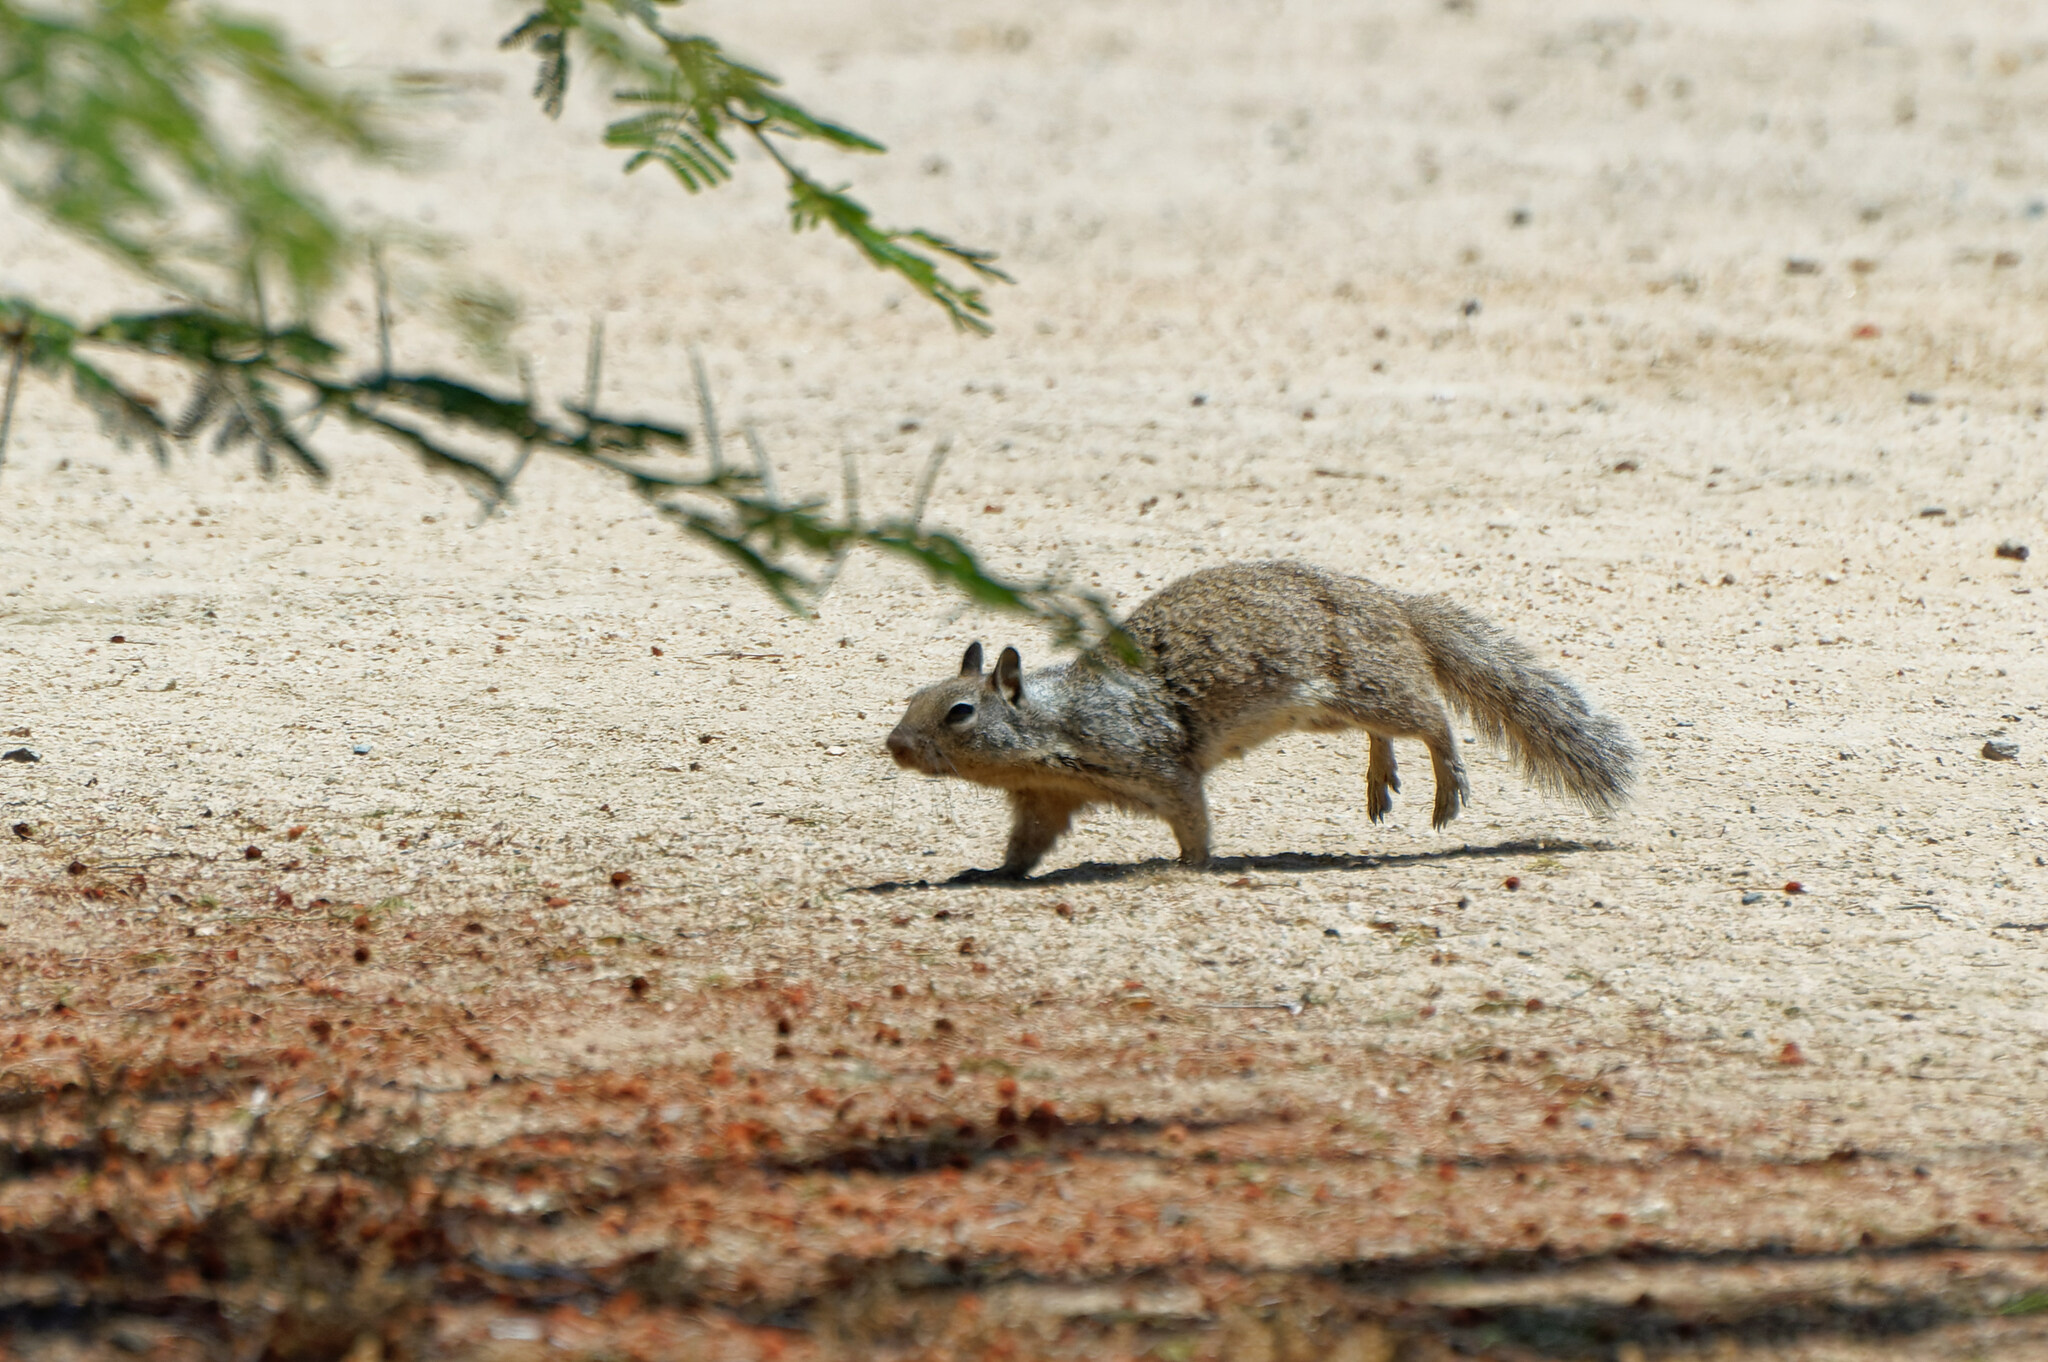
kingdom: Animalia
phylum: Chordata
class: Mammalia
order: Rodentia
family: Sciuridae
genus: Otospermophilus
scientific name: Otospermophilus beecheyi
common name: California ground squirrel
